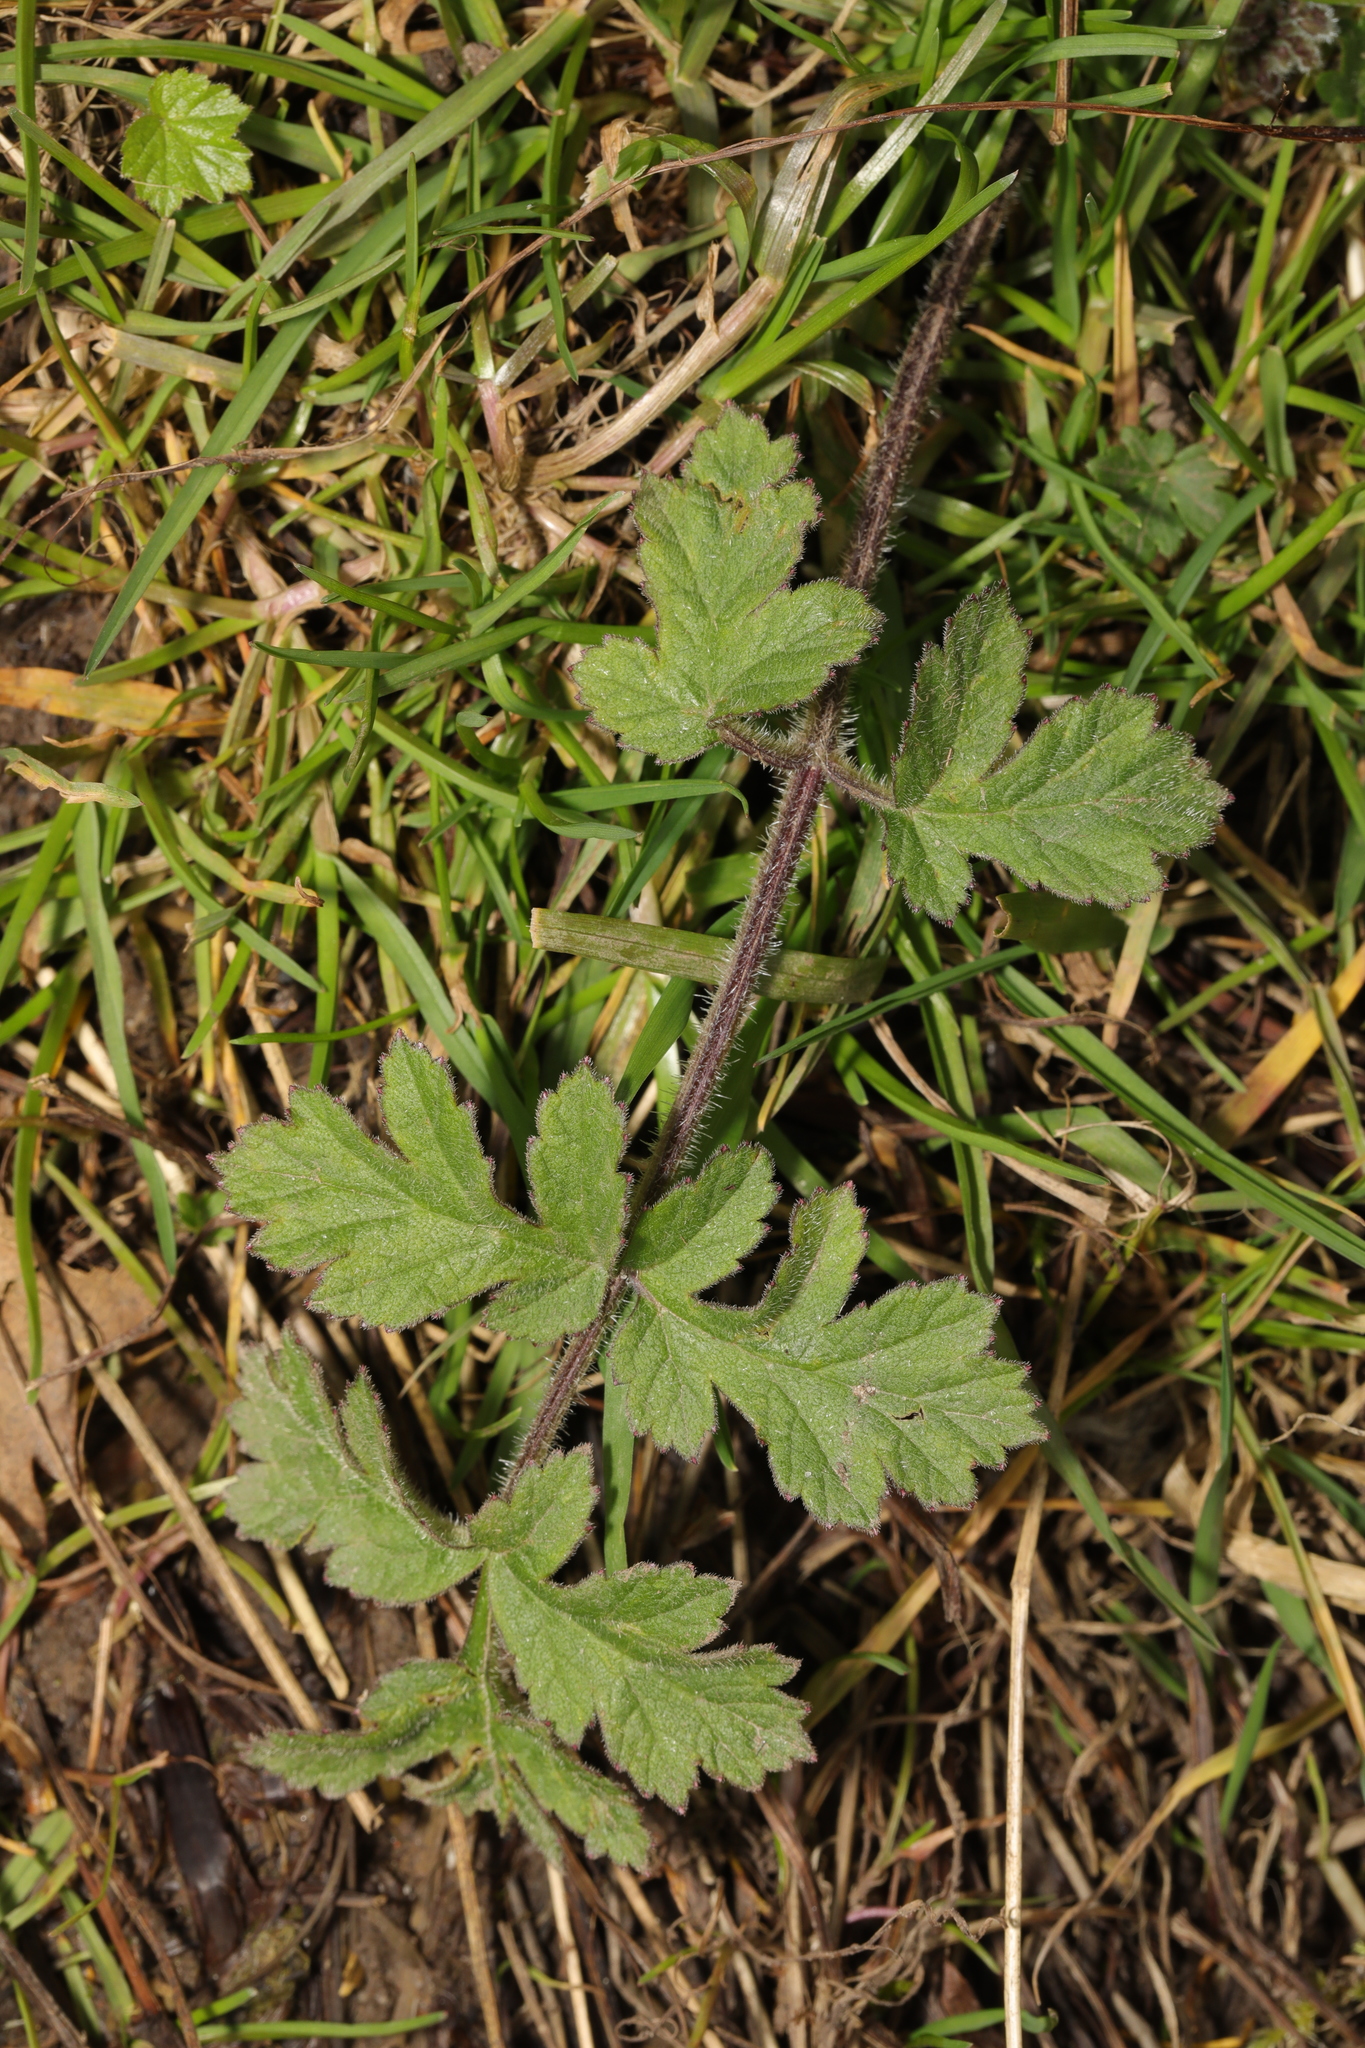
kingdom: Plantae
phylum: Tracheophyta
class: Magnoliopsida
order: Apiales
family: Apiaceae
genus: Heracleum
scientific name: Heracleum sphondylium
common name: Hogweed
